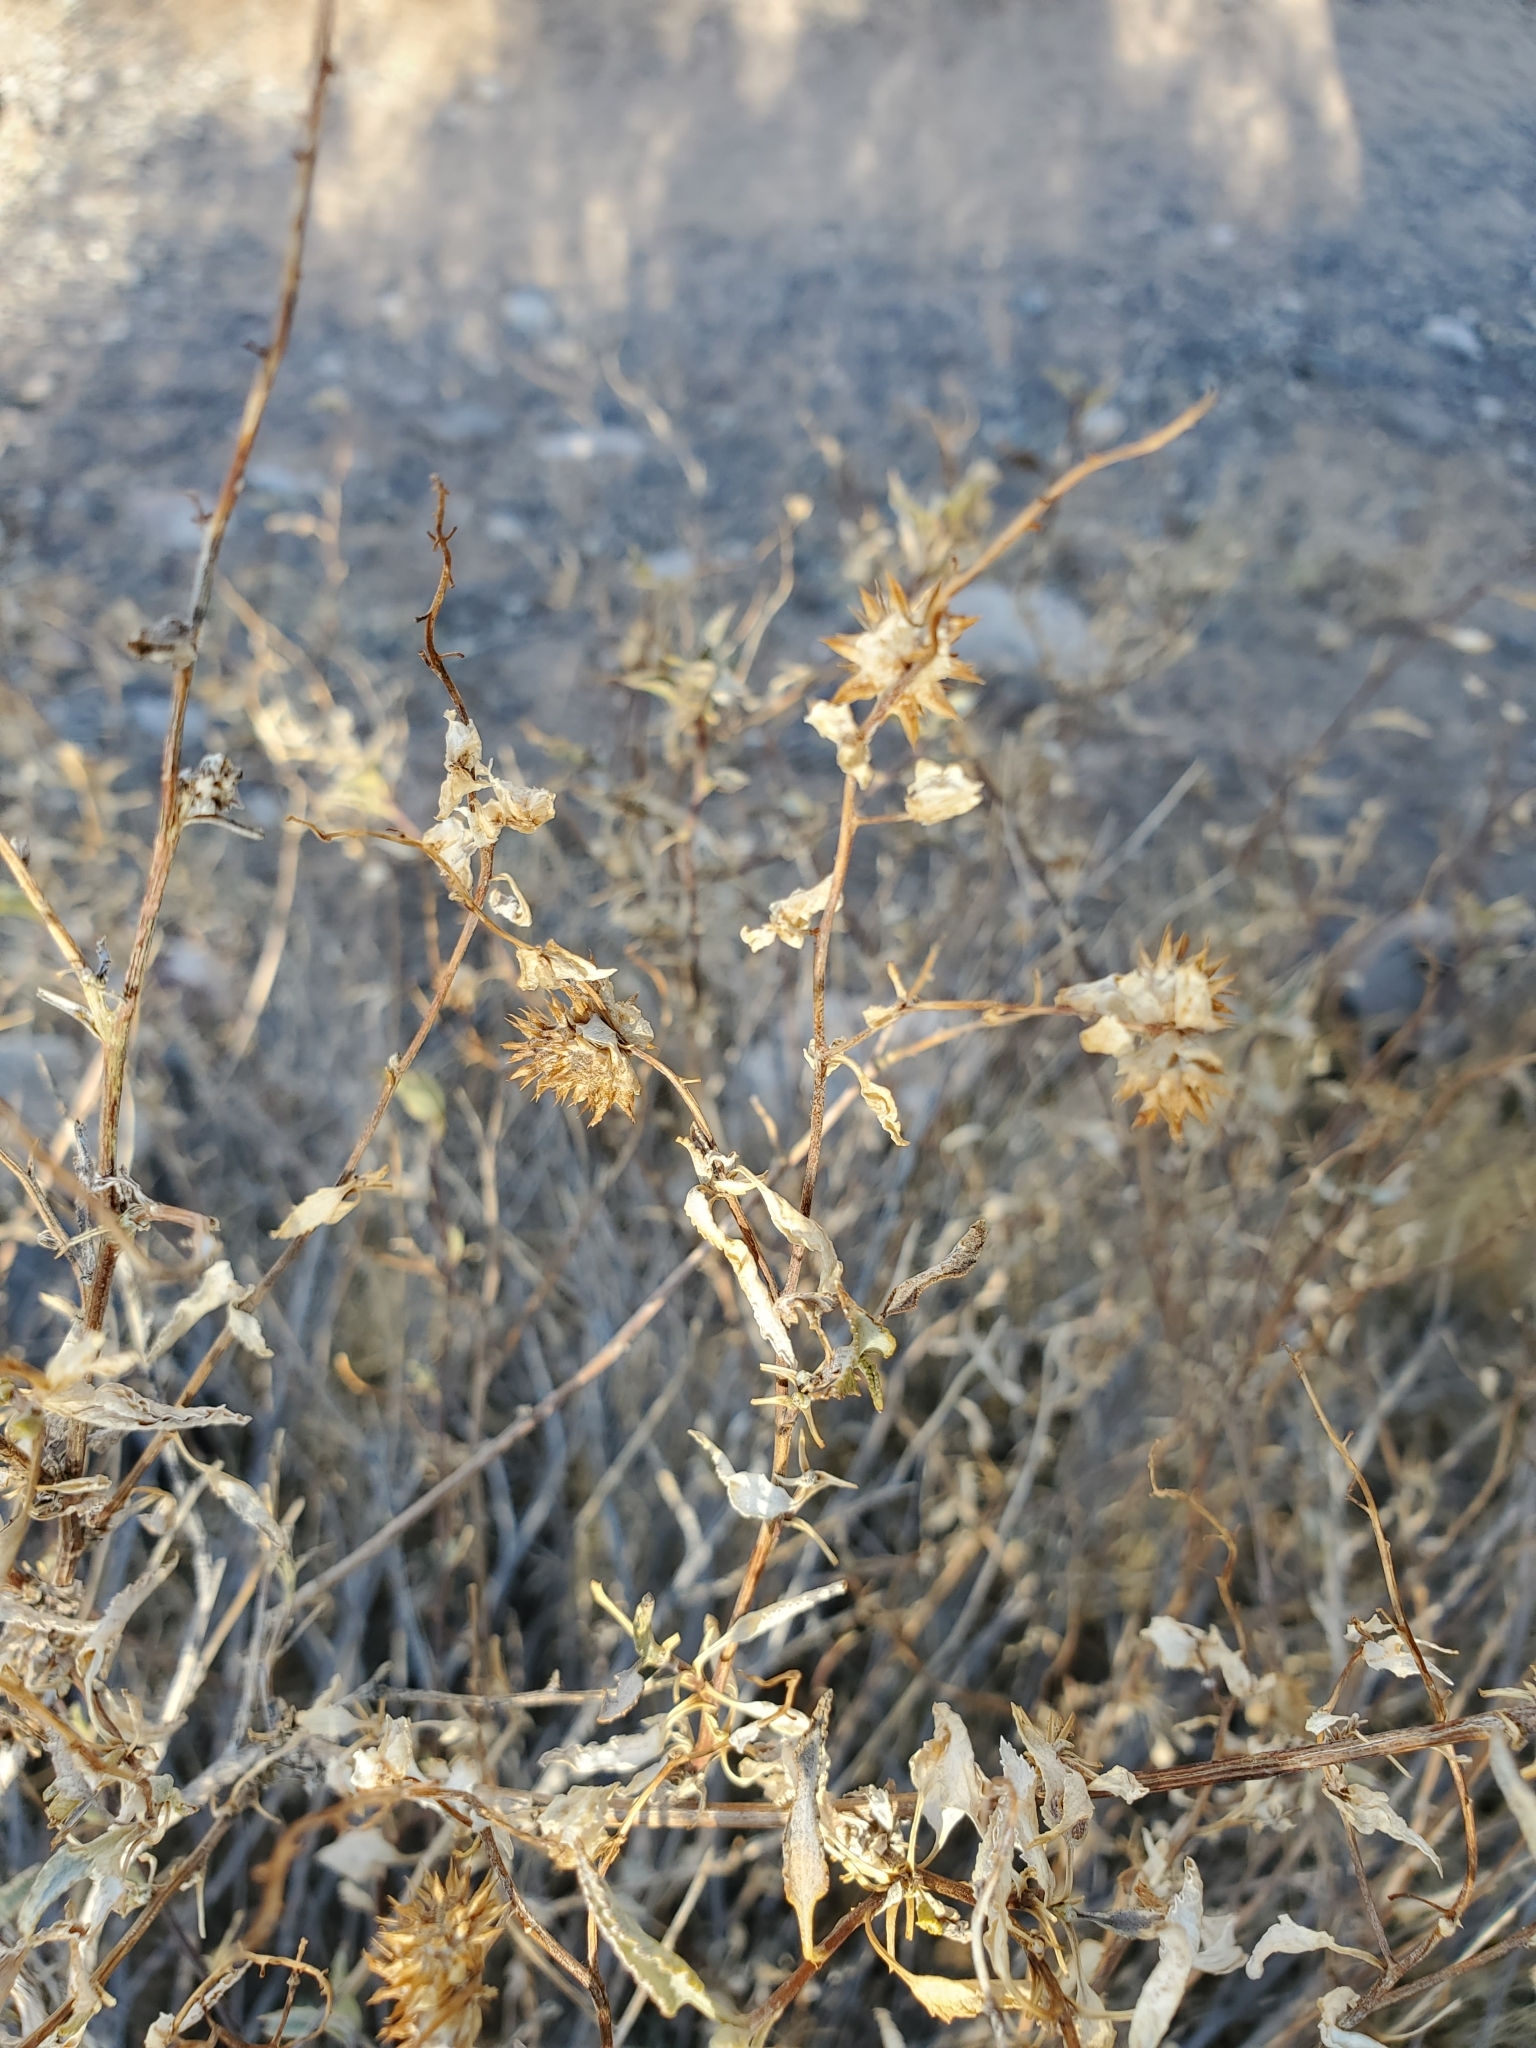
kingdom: Plantae
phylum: Tracheophyta
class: Magnoliopsida
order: Asterales
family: Asteraceae
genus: Ambrosia
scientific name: Ambrosia deltoidea
